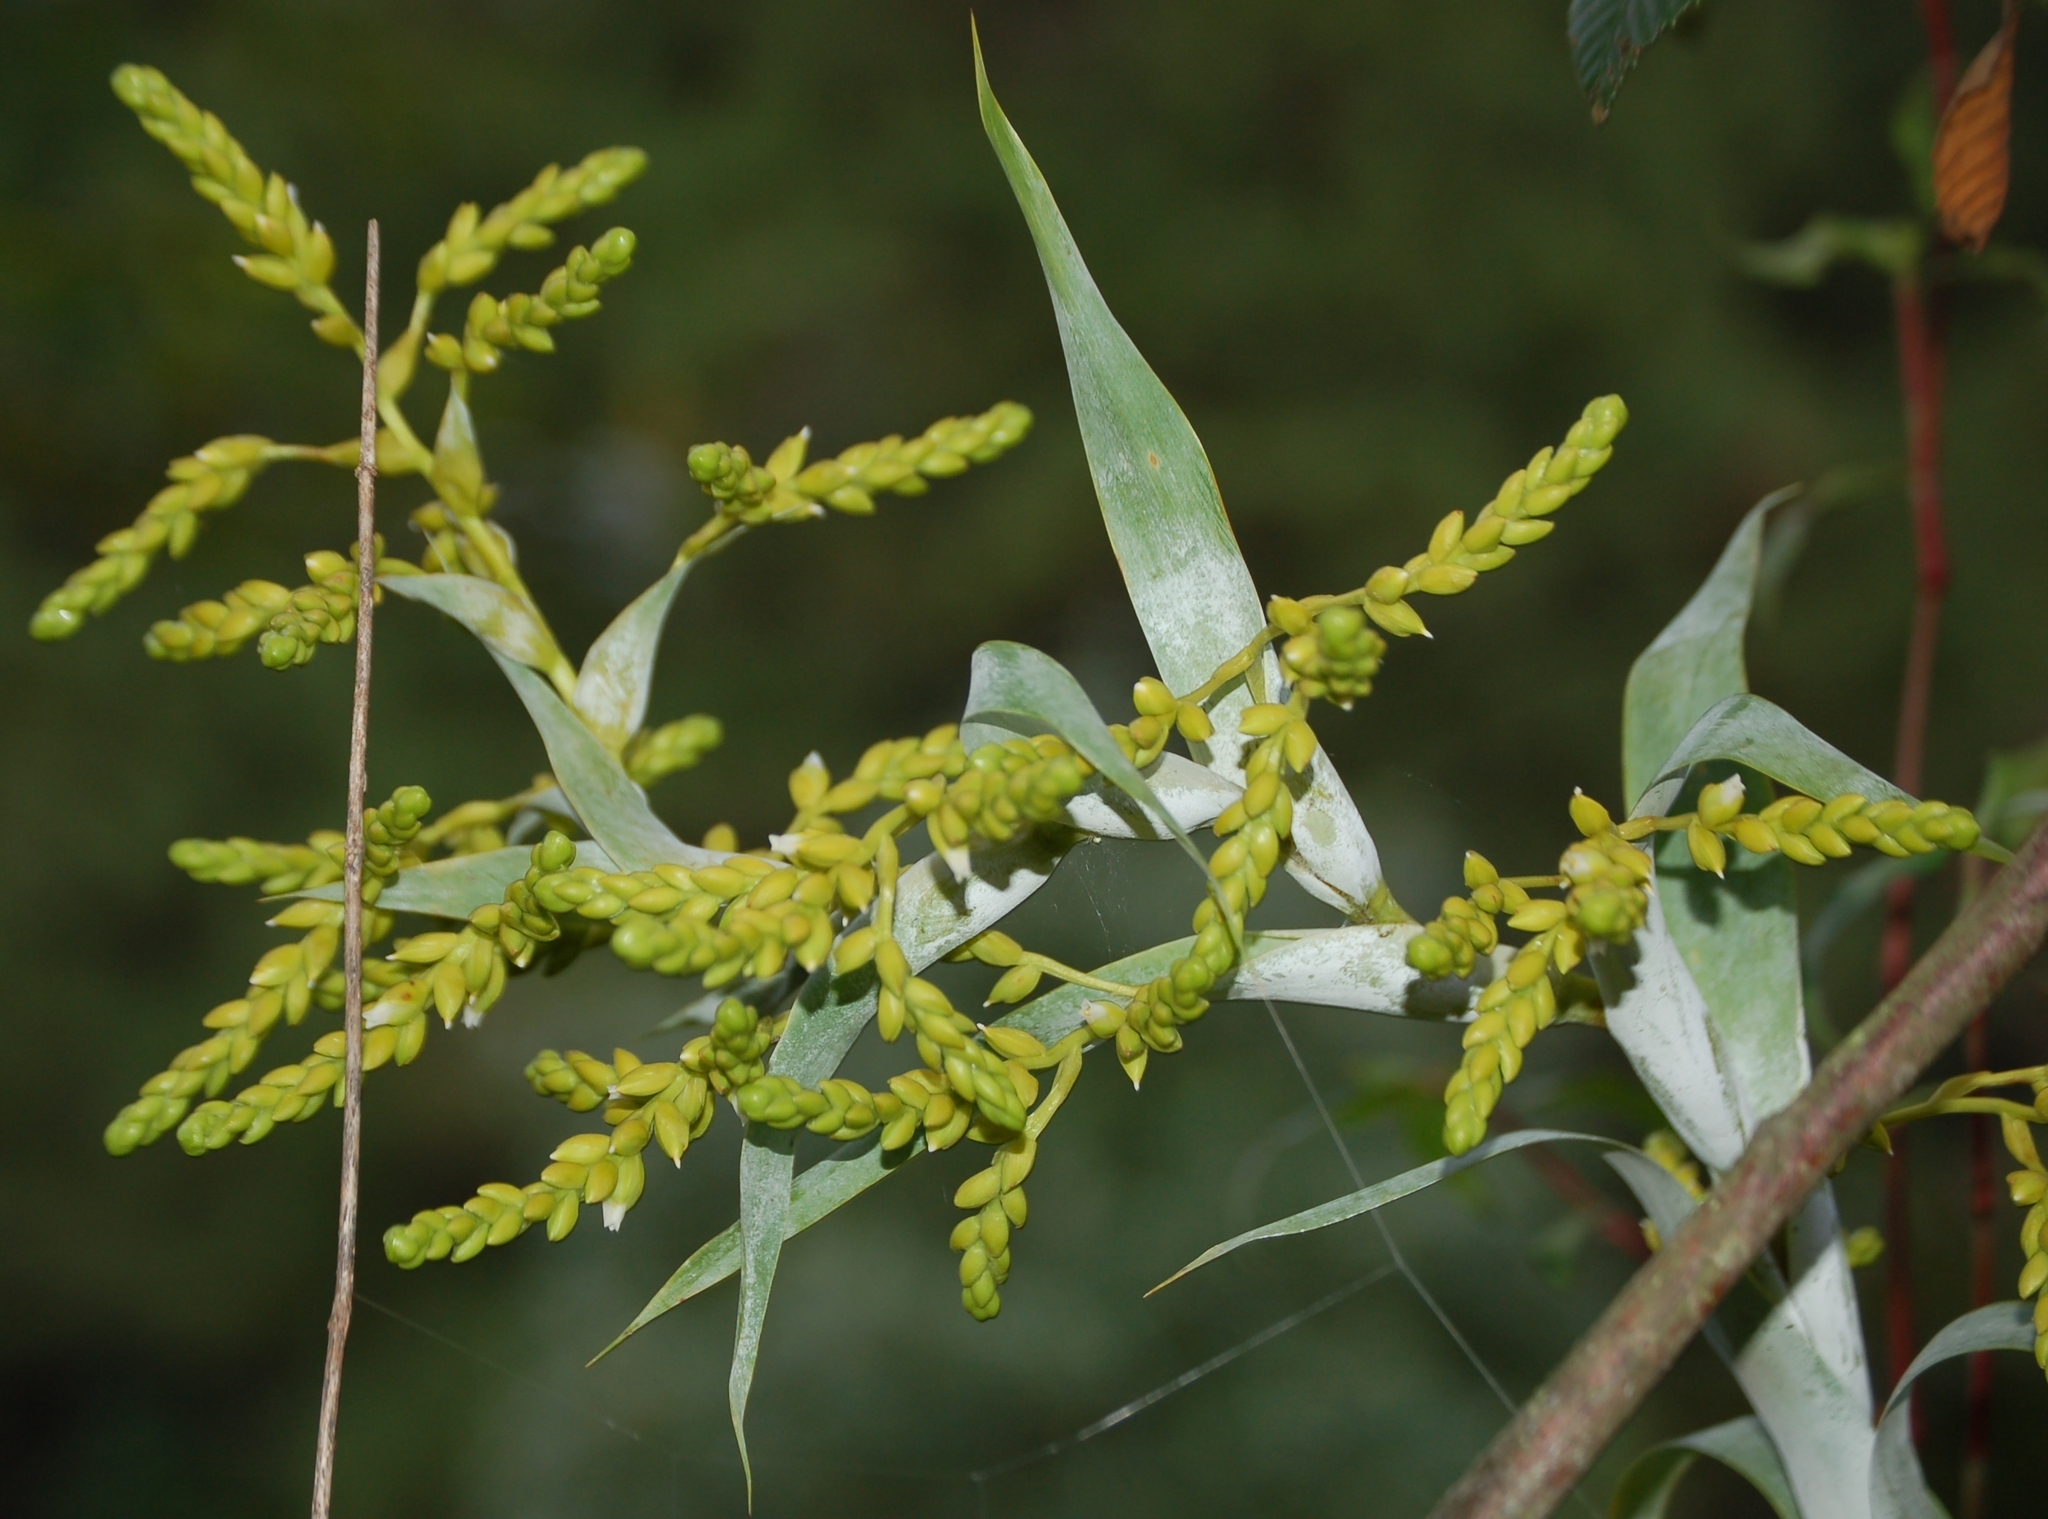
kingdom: Plantae
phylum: Tracheophyta
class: Liliopsida
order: Poales
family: Bromeliaceae
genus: Catopsis
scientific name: Catopsis oerstediana
